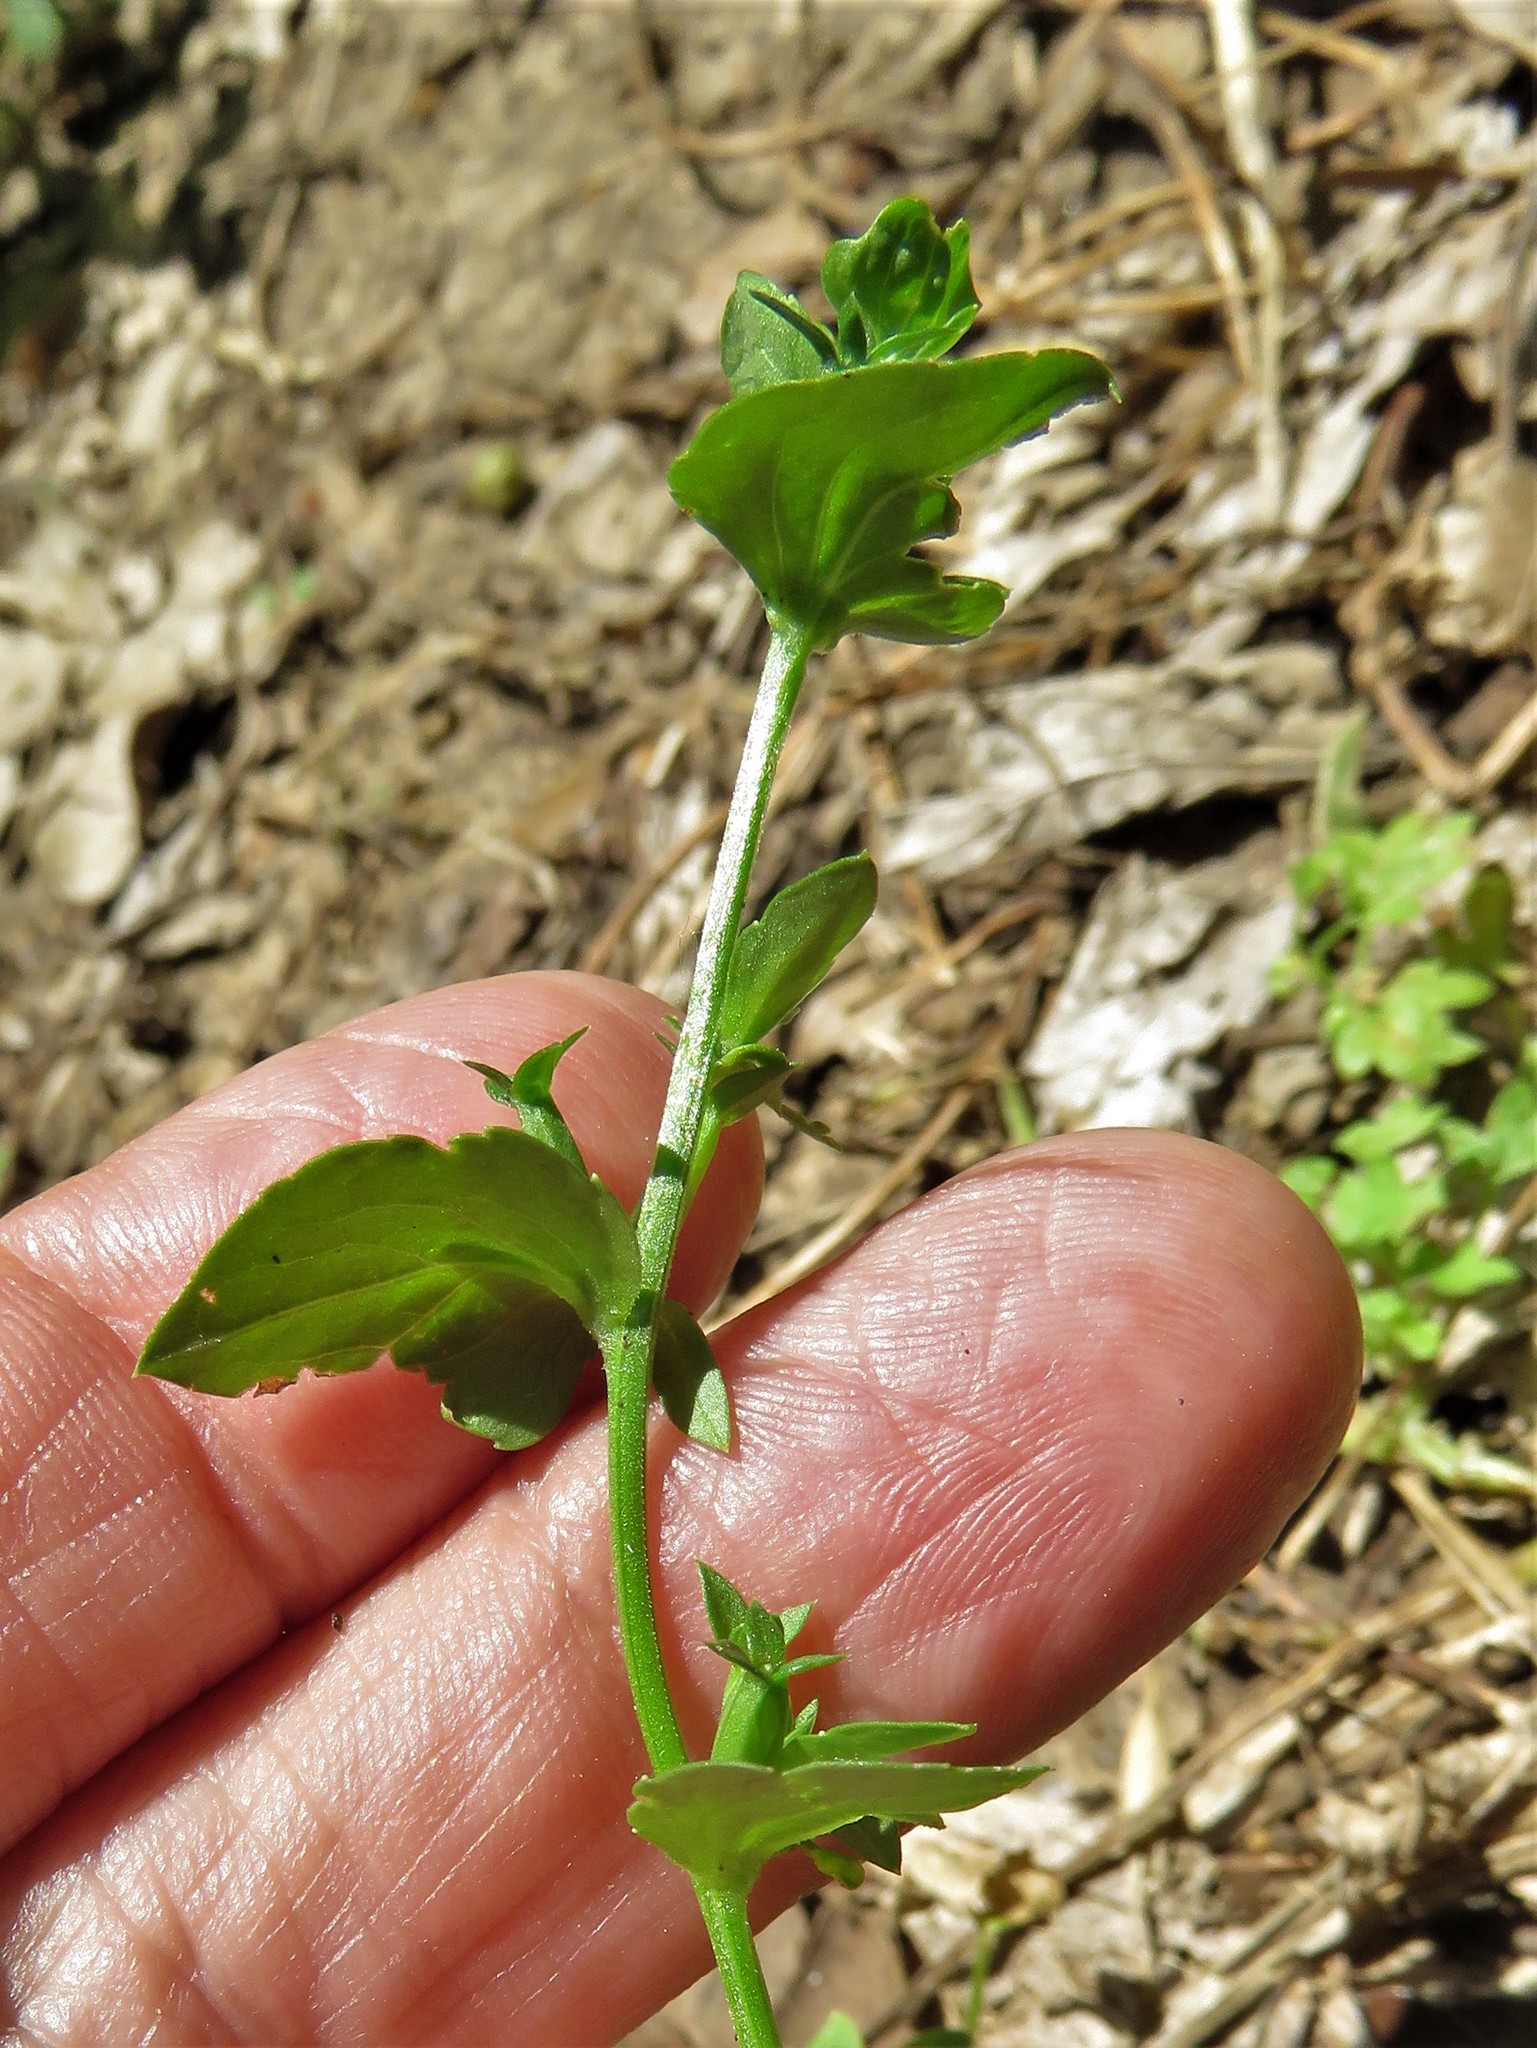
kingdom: Plantae
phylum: Tracheophyta
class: Magnoliopsida
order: Asterales
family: Campanulaceae
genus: Triodanis
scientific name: Triodanis biflora
